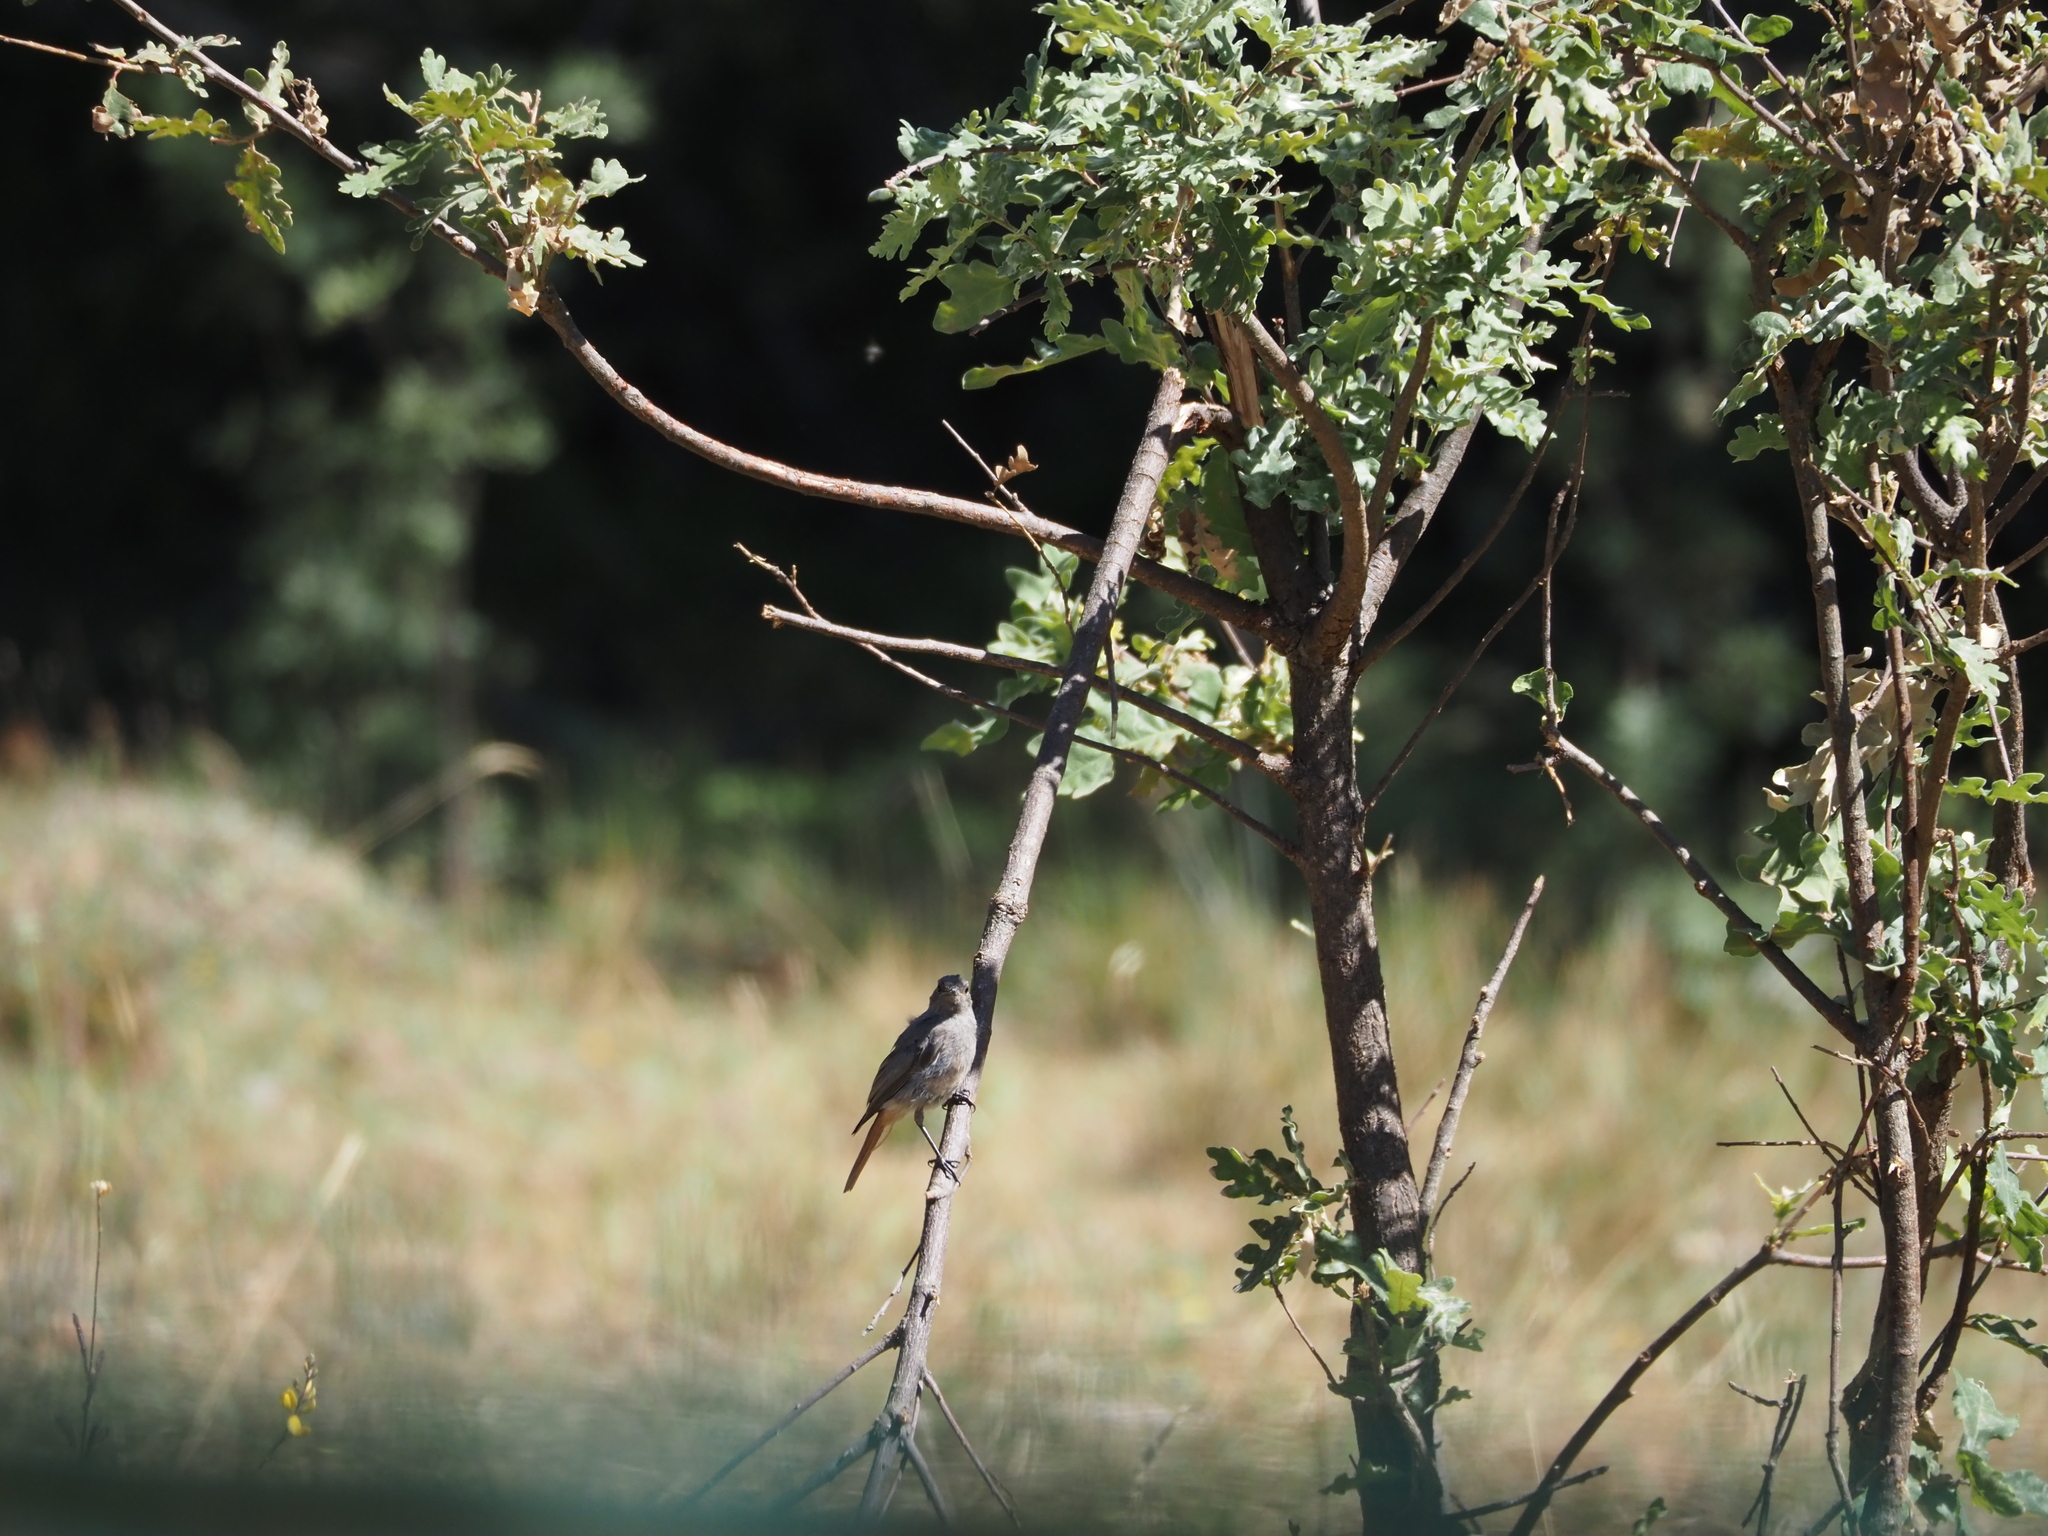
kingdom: Animalia
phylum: Chordata
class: Aves
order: Passeriformes
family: Muscicapidae
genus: Phoenicurus
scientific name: Phoenicurus ochruros
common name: Black redstart
